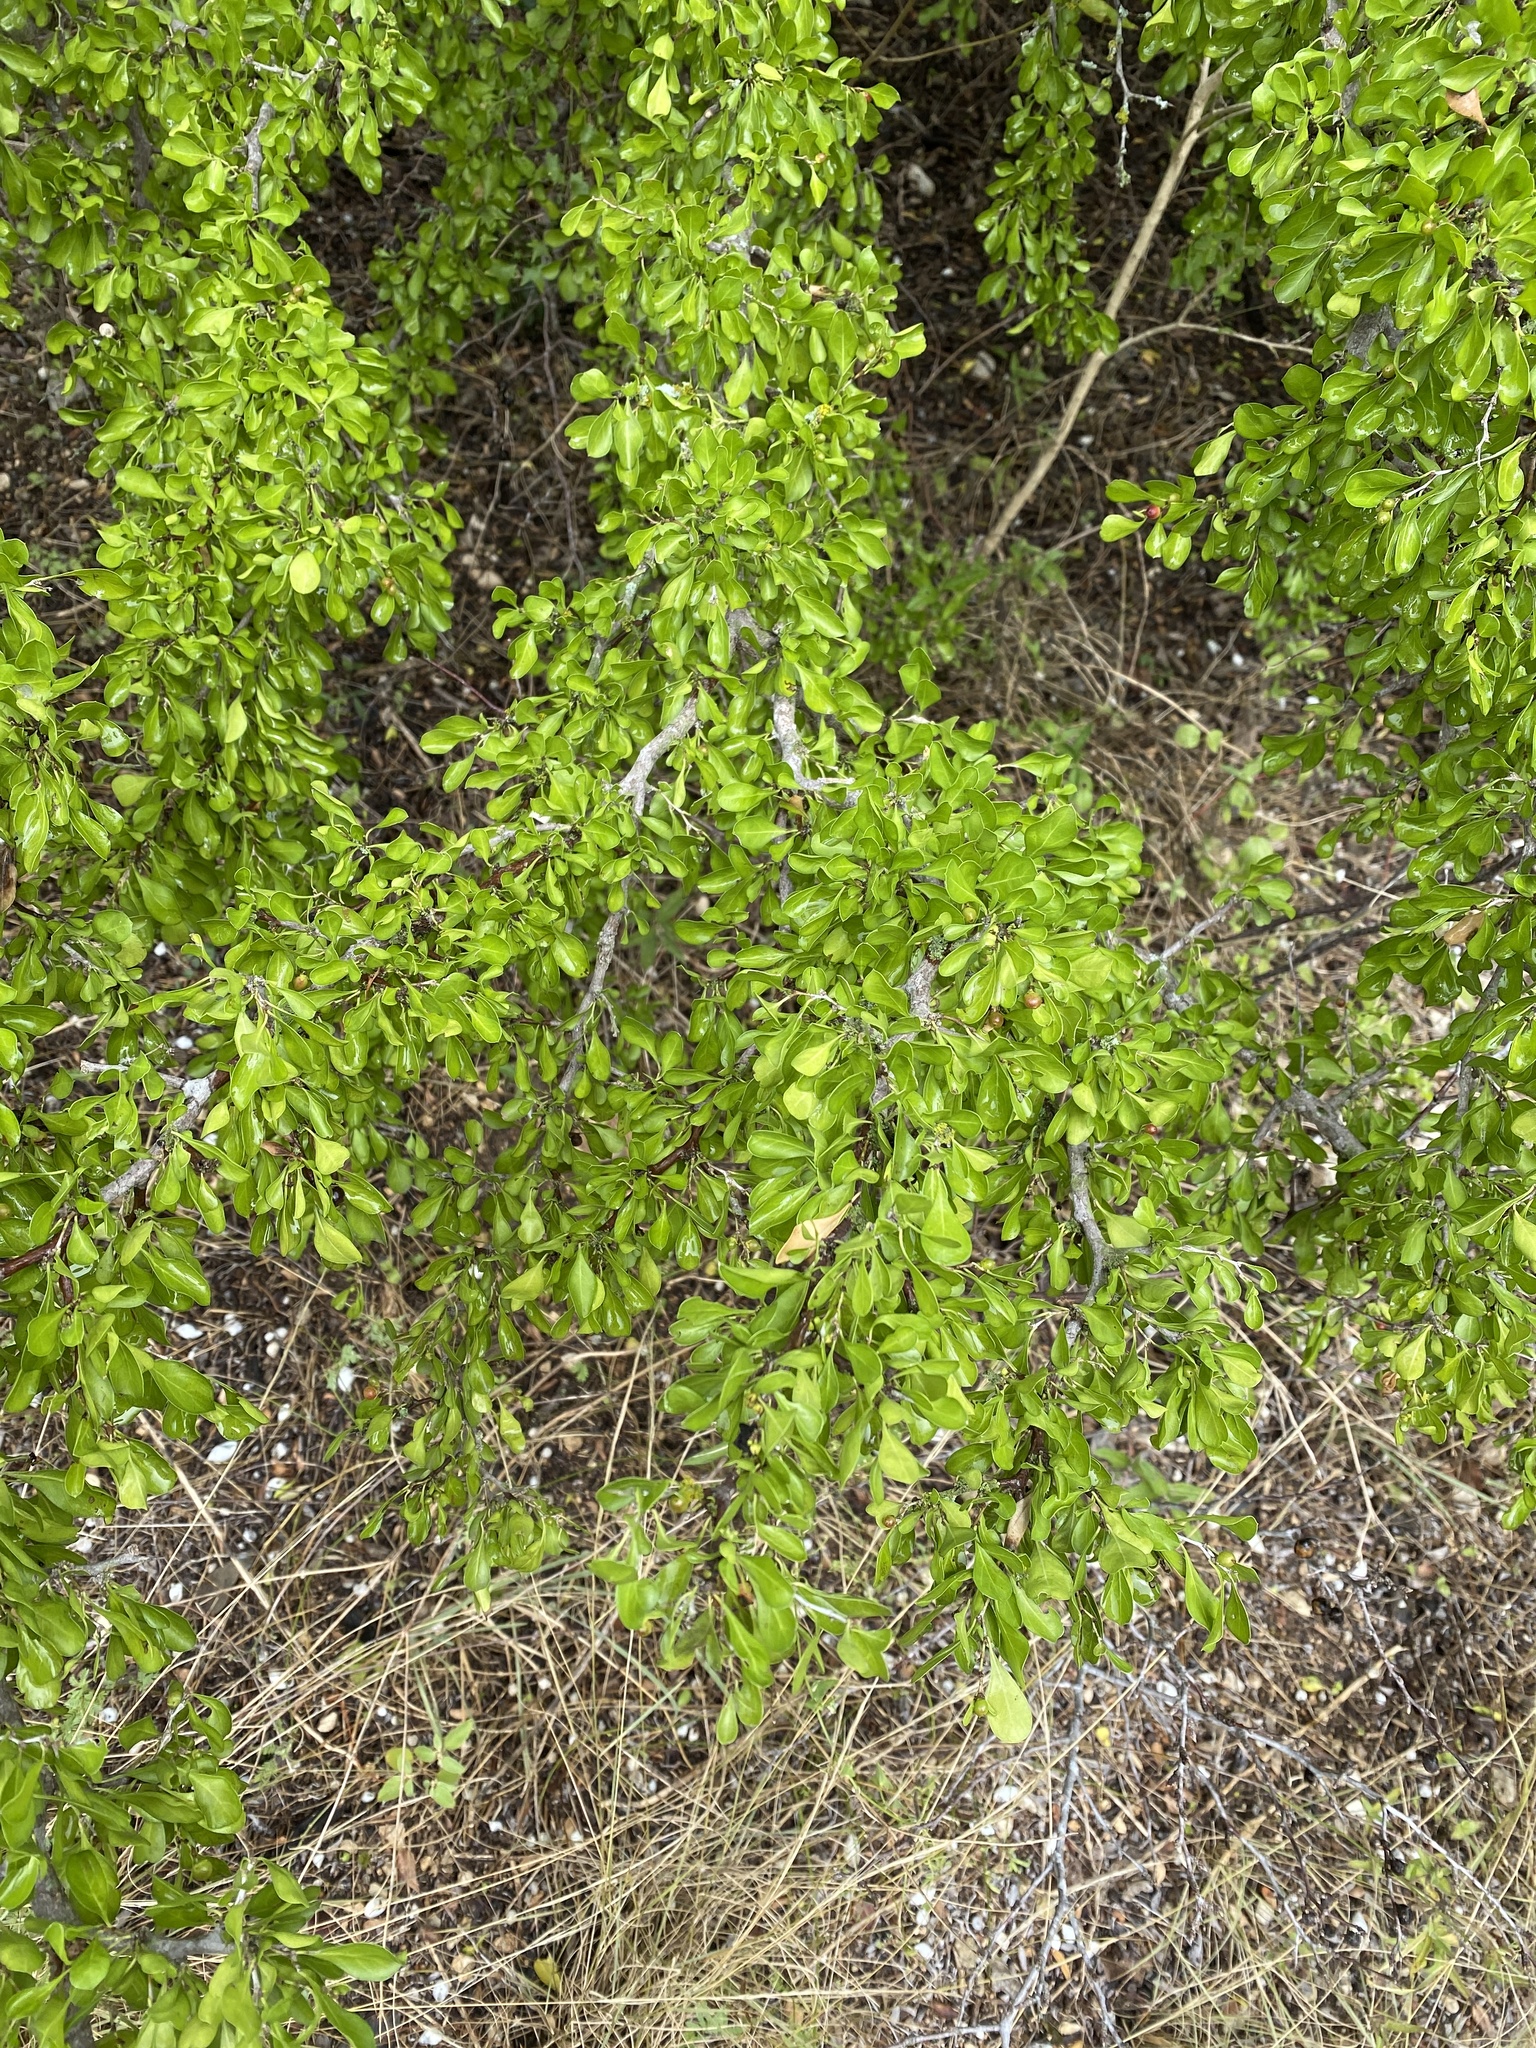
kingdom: Plantae
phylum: Tracheophyta
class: Magnoliopsida
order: Rosales
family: Rhamnaceae
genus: Condalia
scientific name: Condalia hookeri
